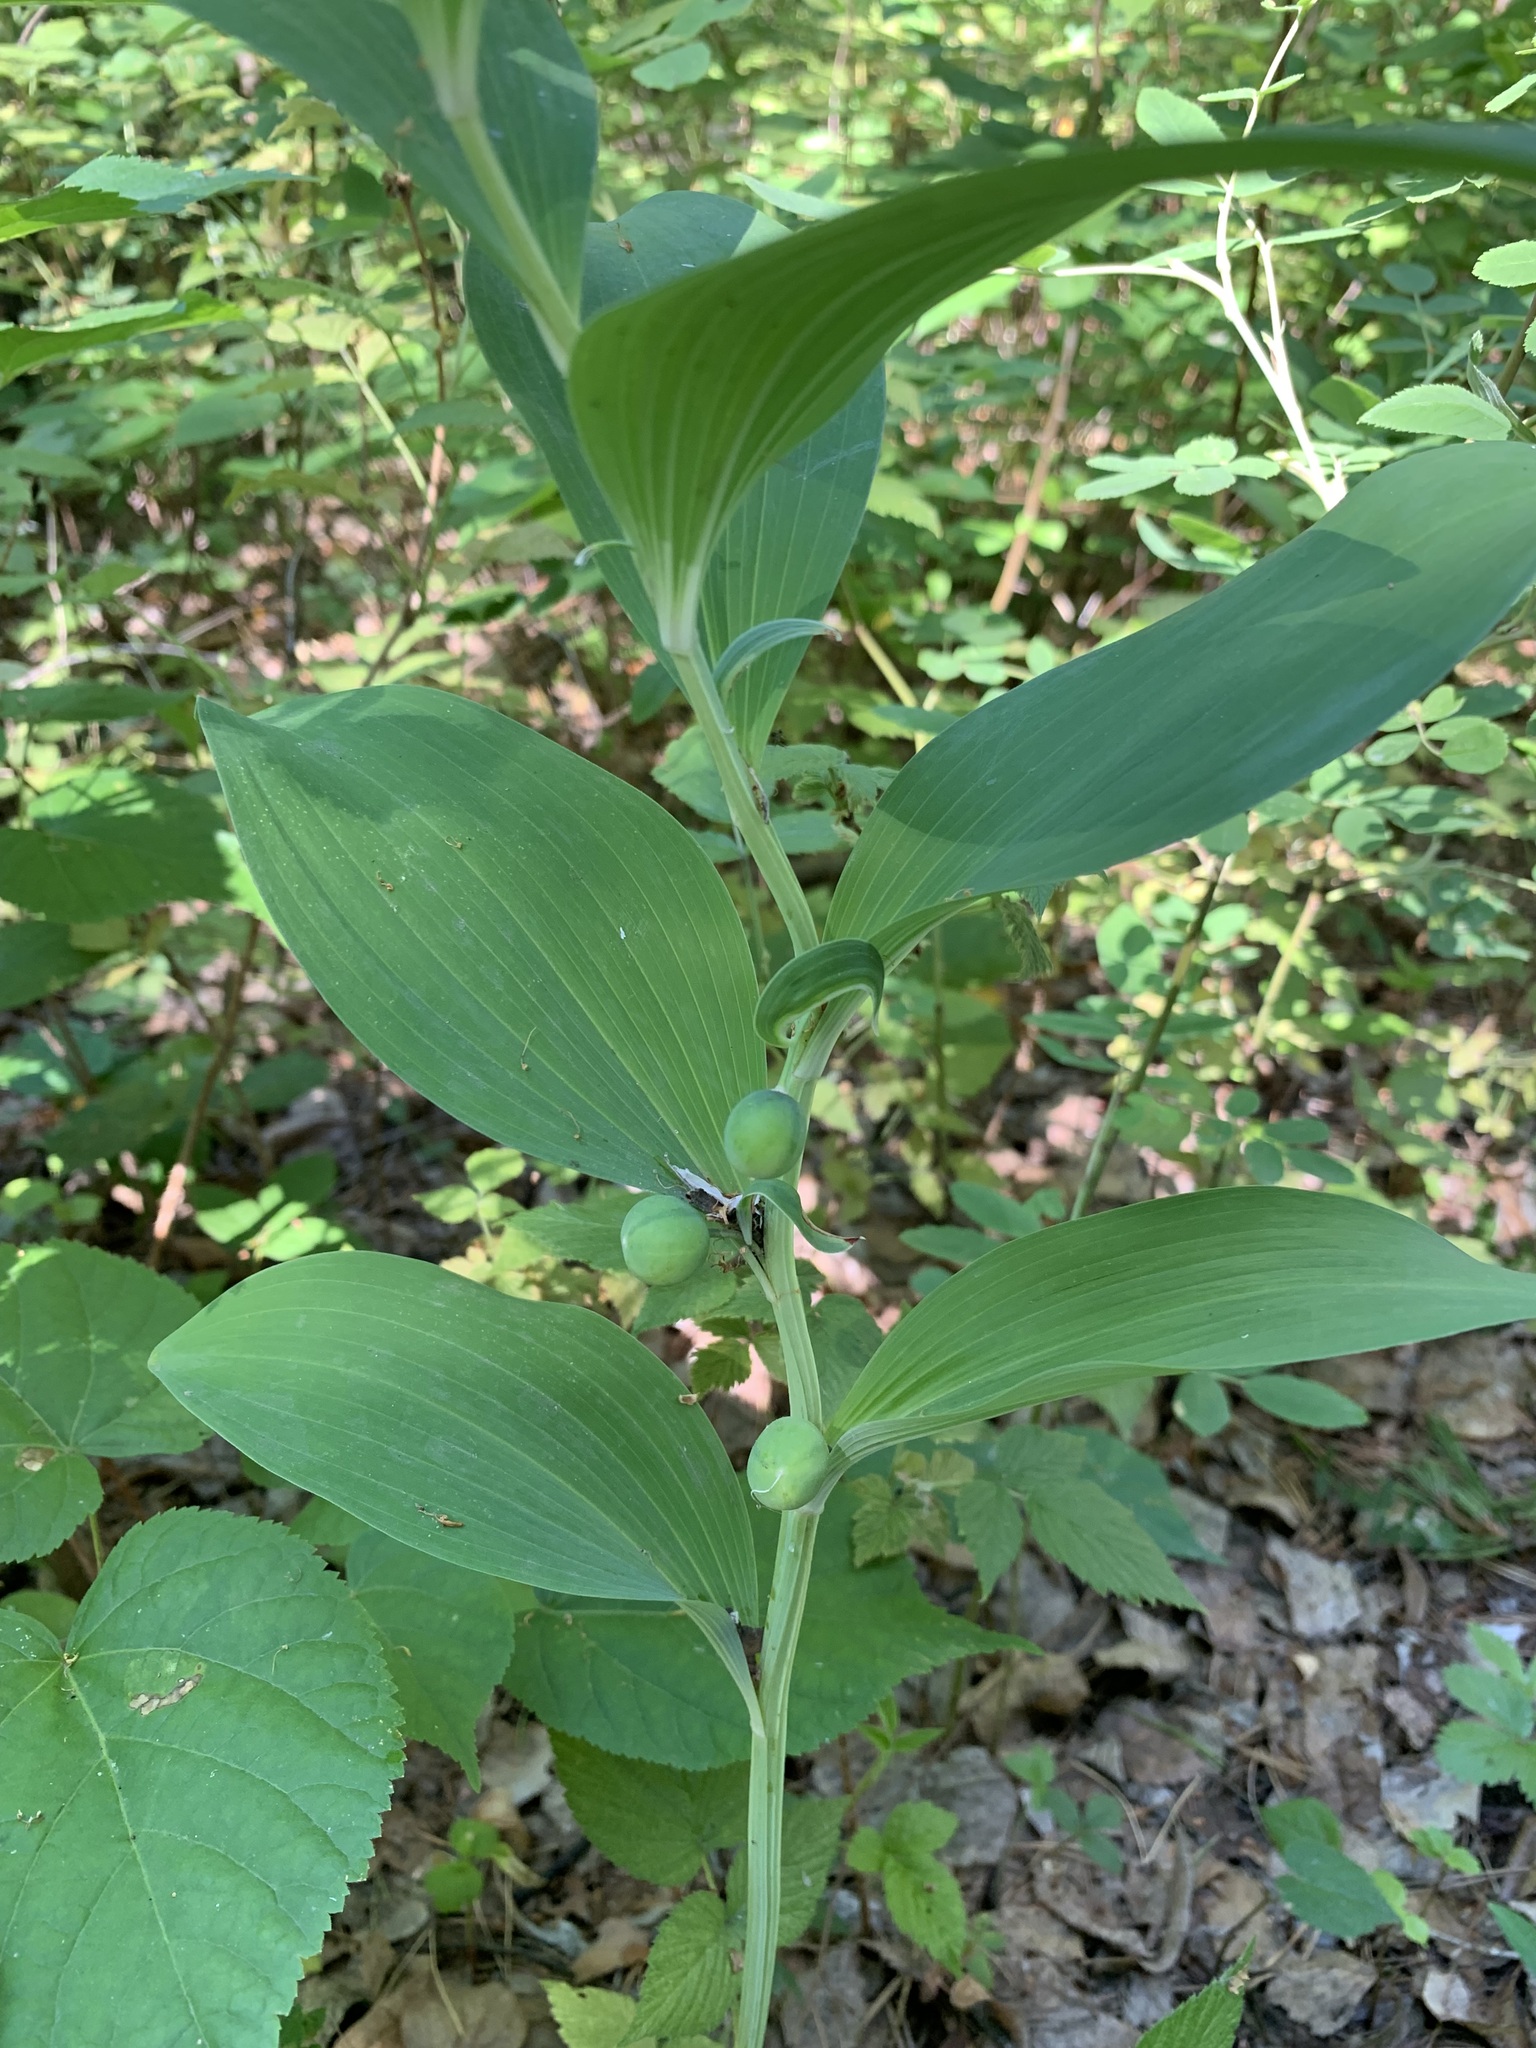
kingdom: Plantae
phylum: Tracheophyta
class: Liliopsida
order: Asparagales
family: Asparagaceae
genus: Polygonatum
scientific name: Polygonatum odoratum
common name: Angular solomon's-seal
